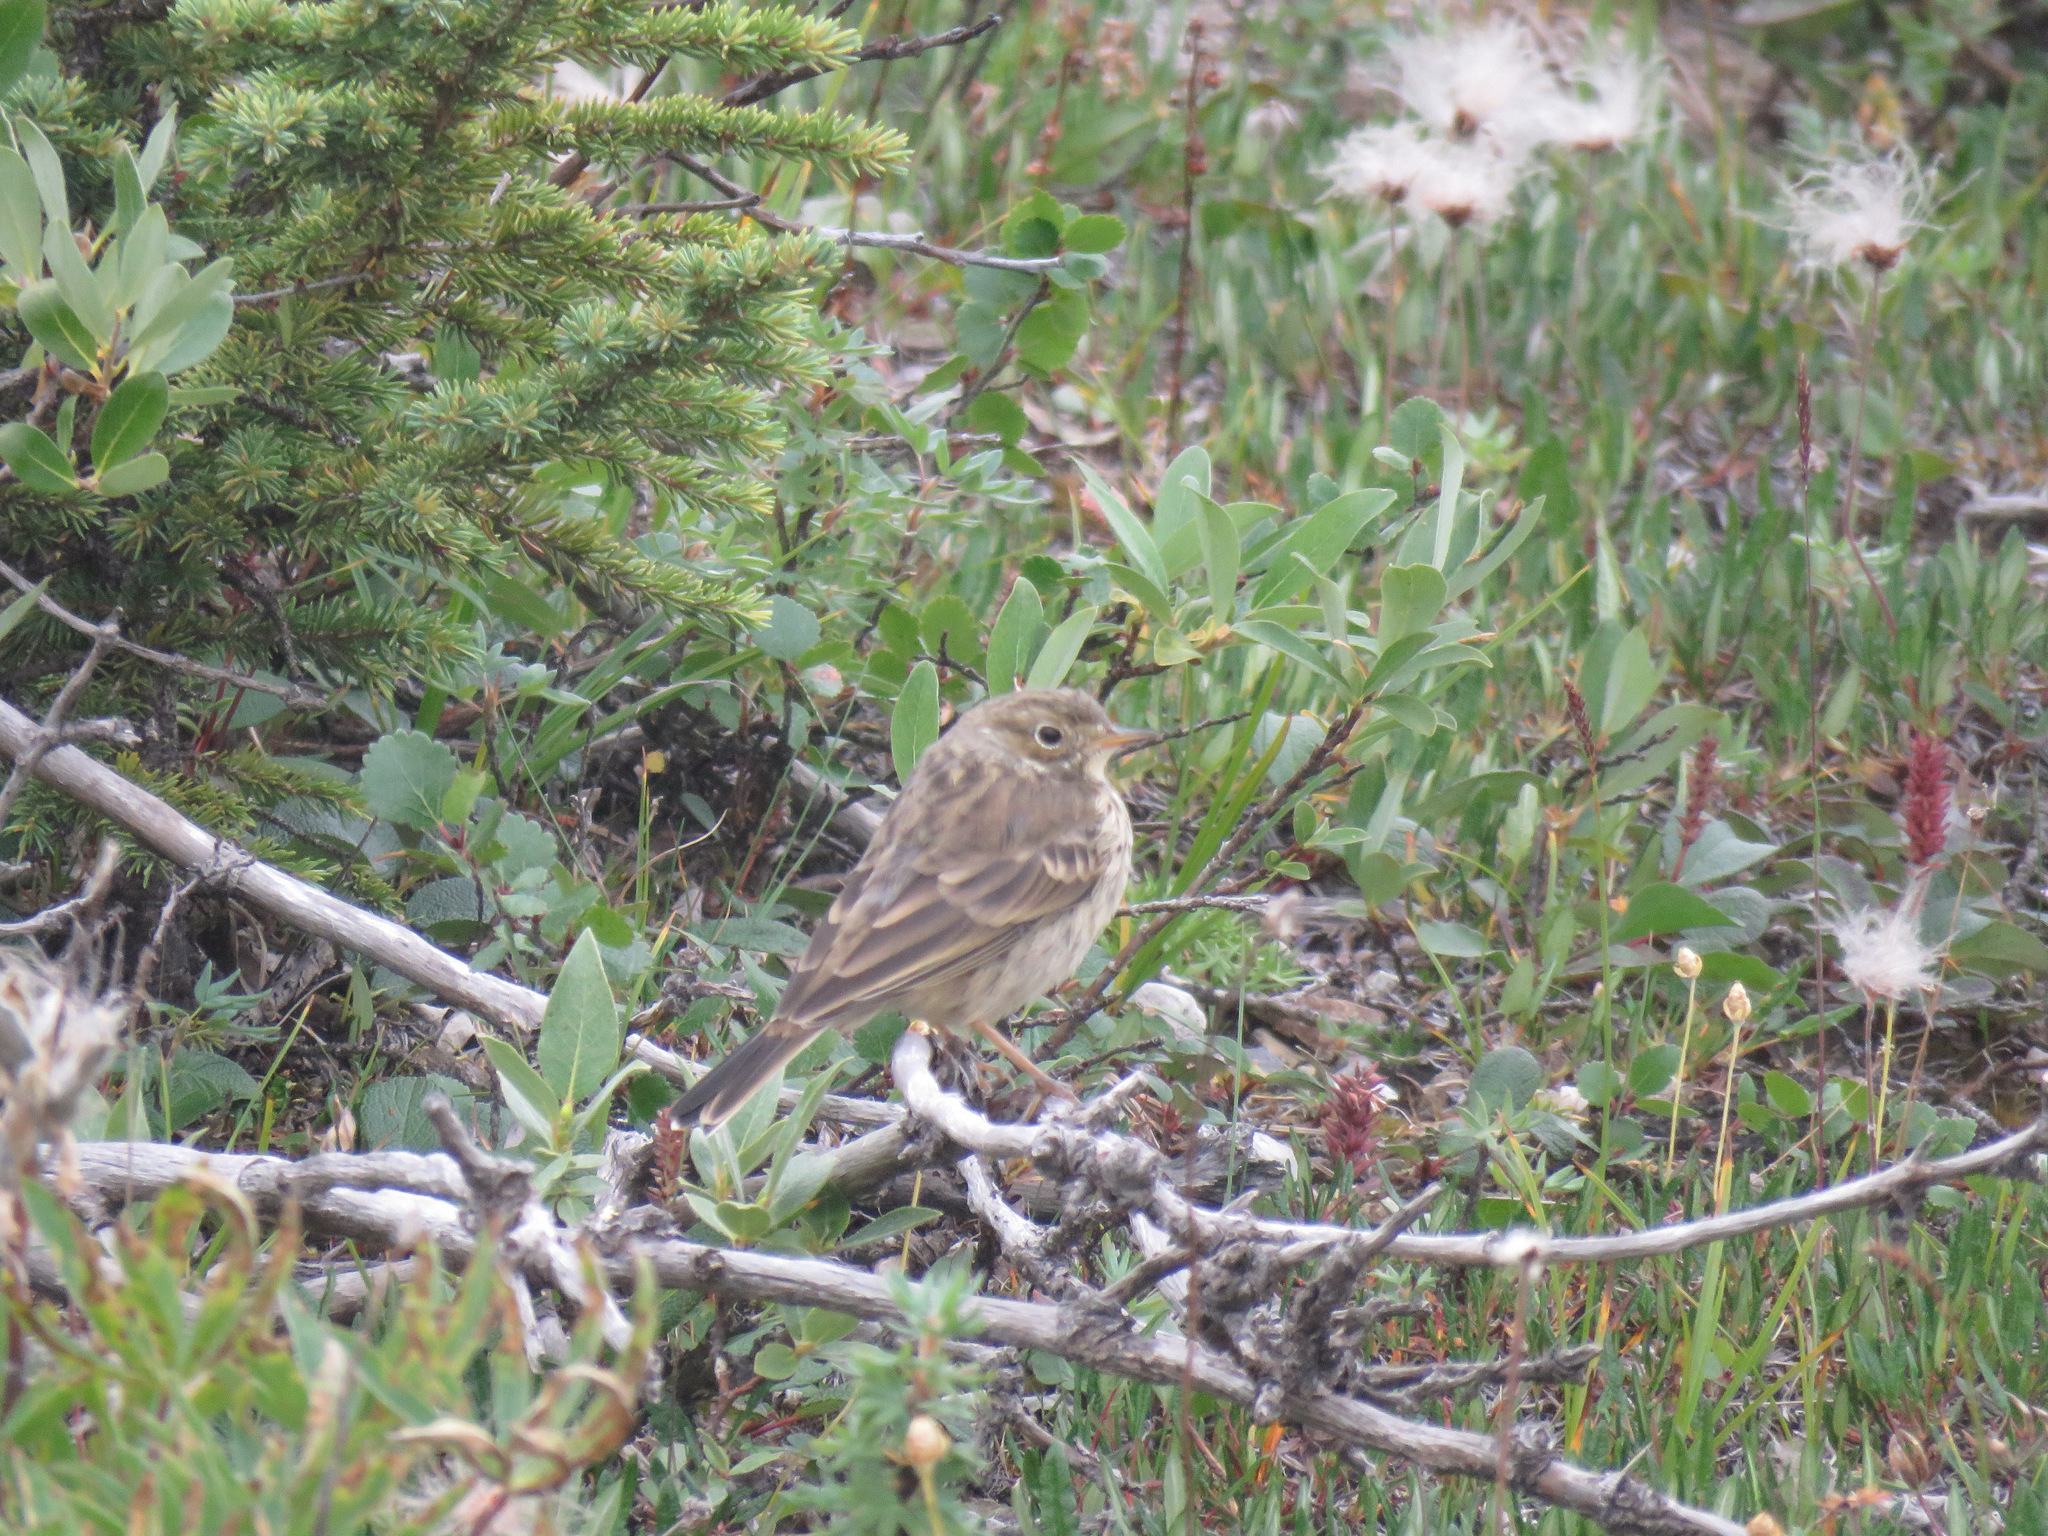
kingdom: Animalia
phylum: Chordata
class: Aves
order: Passeriformes
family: Motacillidae
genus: Anthus
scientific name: Anthus rubescens
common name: Buff-bellied pipit
